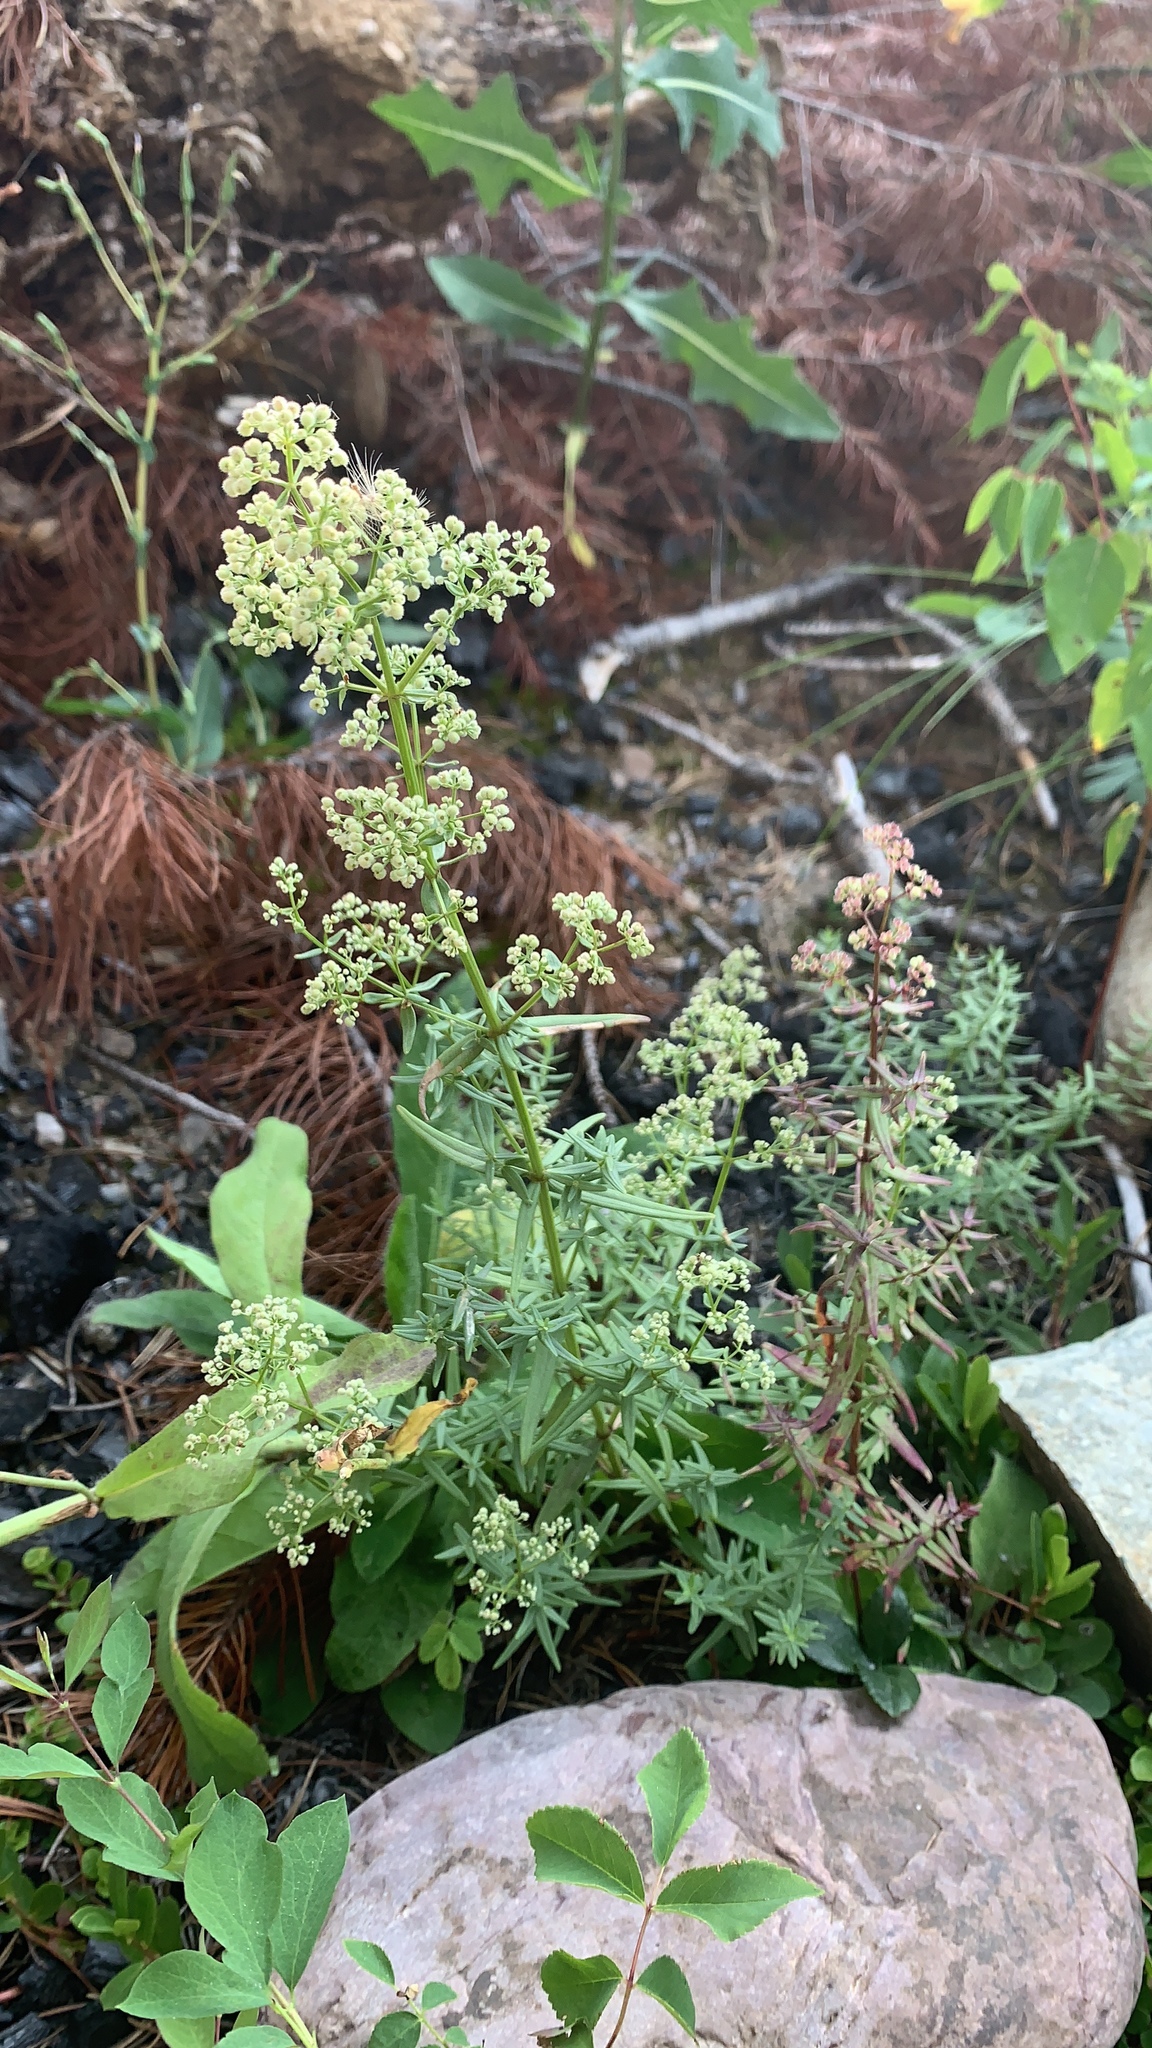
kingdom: Plantae
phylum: Tracheophyta
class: Magnoliopsida
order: Gentianales
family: Rubiaceae
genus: Galium
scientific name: Galium boreale
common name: Northern bedstraw
